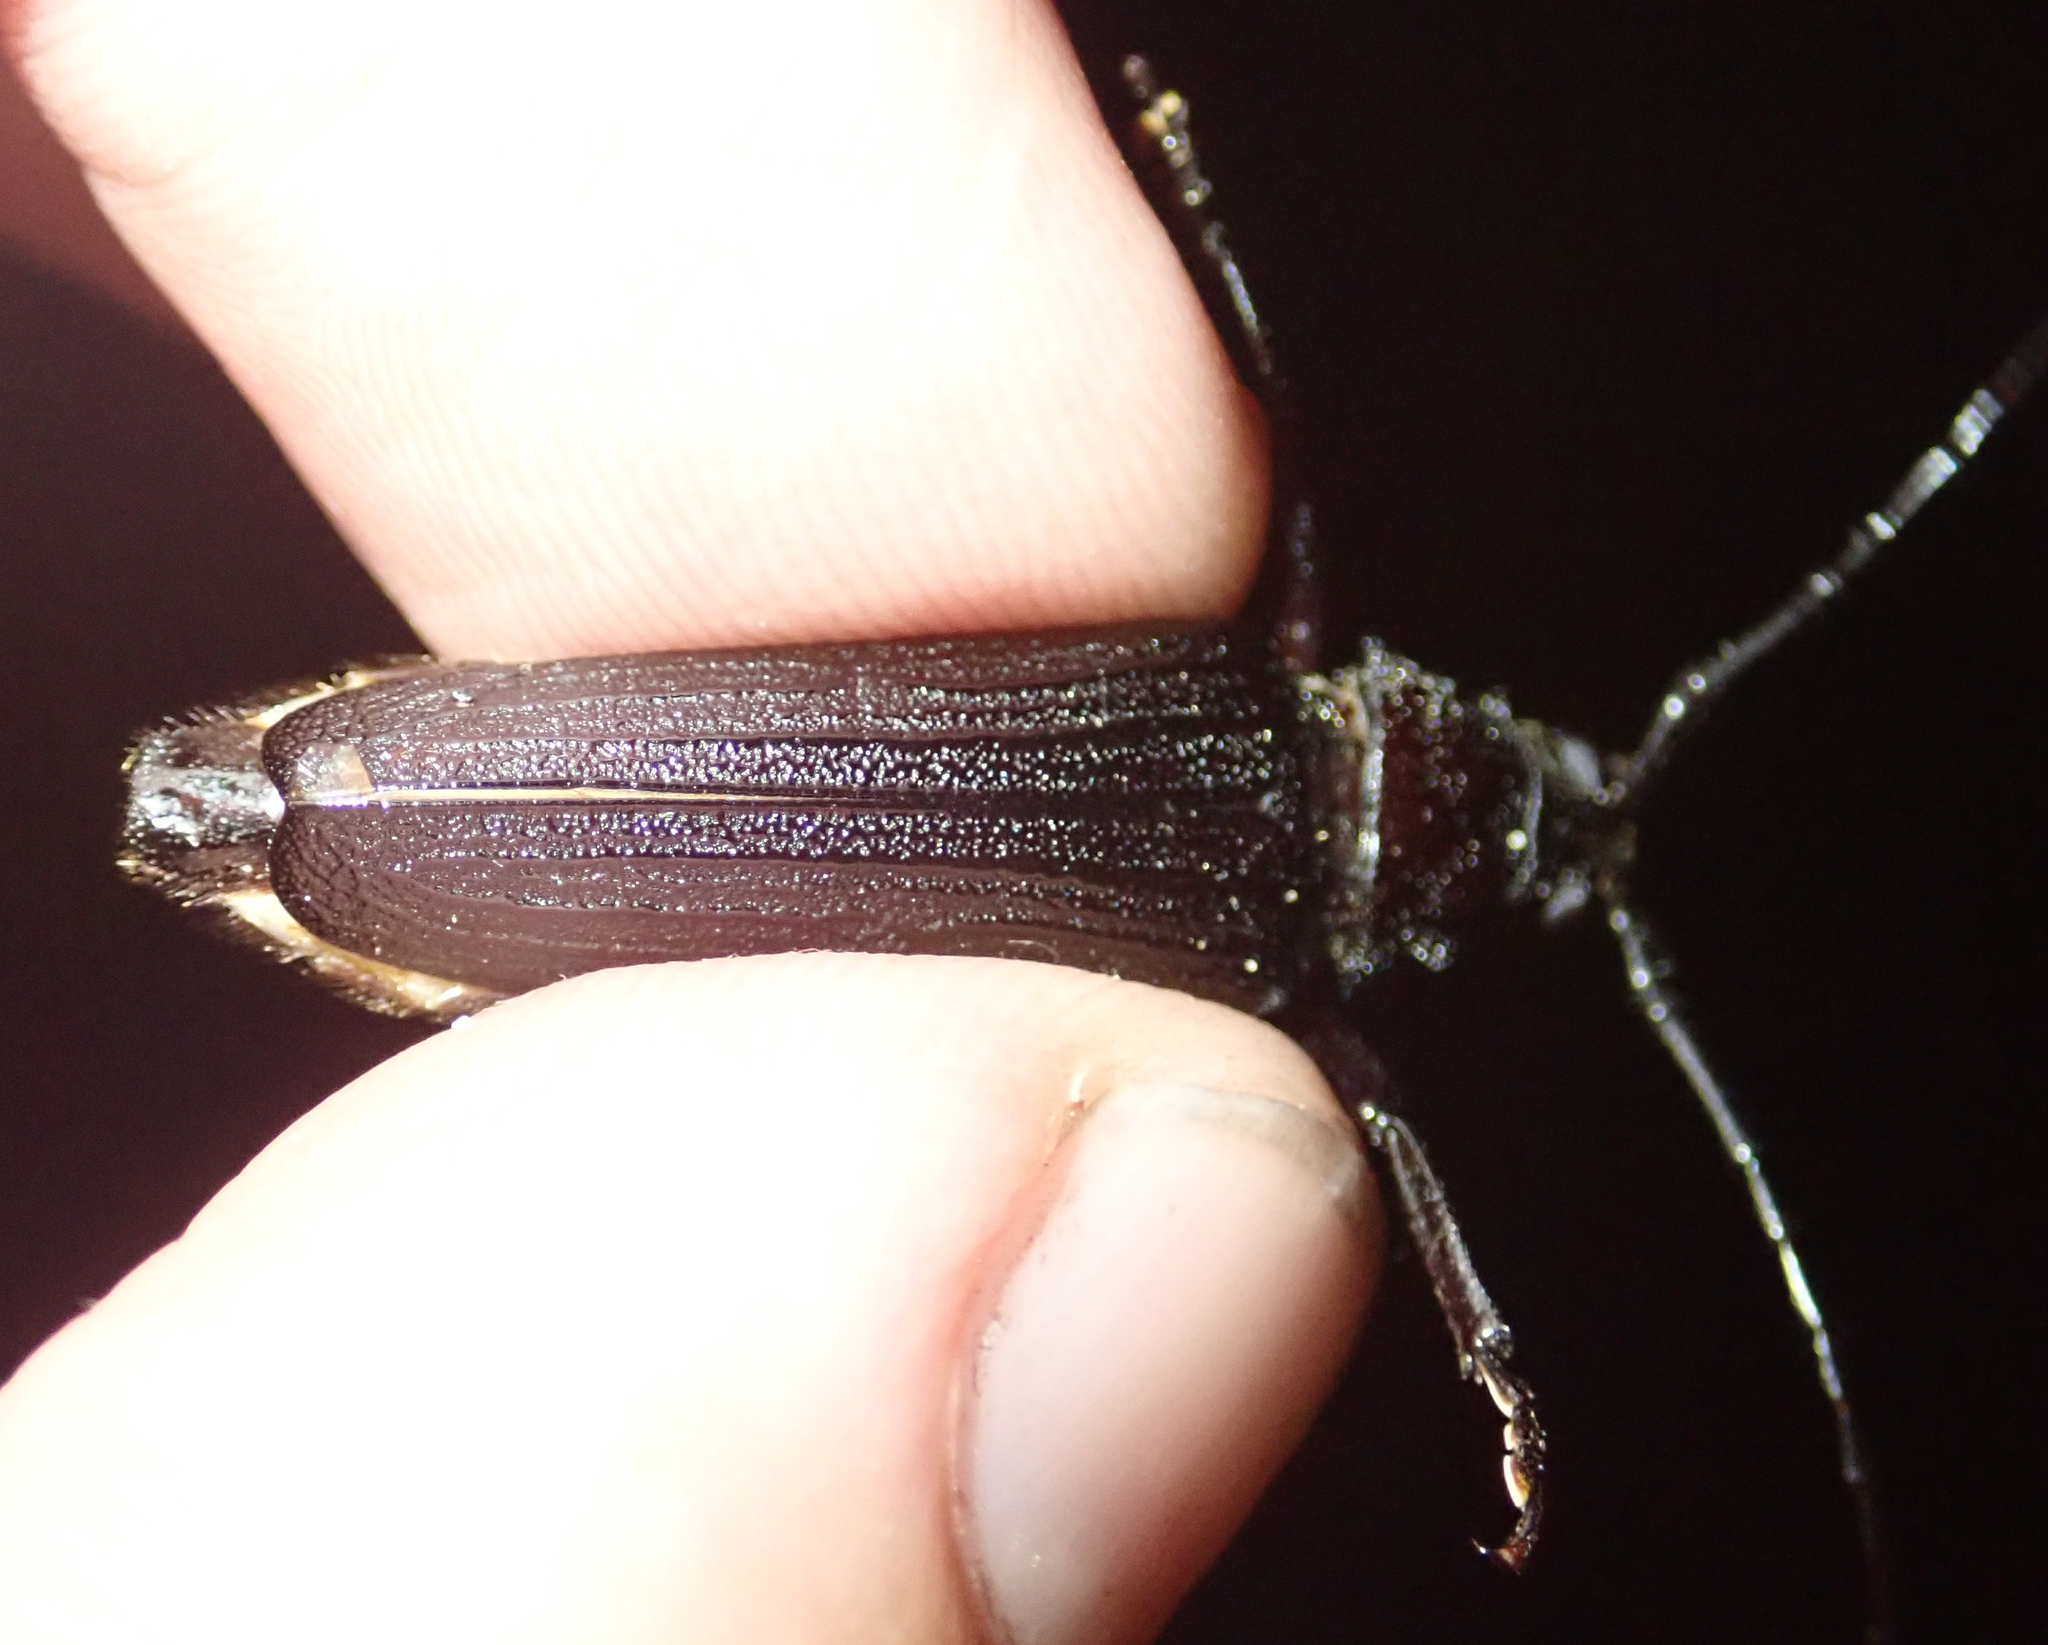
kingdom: Animalia
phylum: Arthropoda
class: Insecta
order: Coleoptera
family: Cerambycidae
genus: Aulacopus
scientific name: Aulacopus reticulatus
